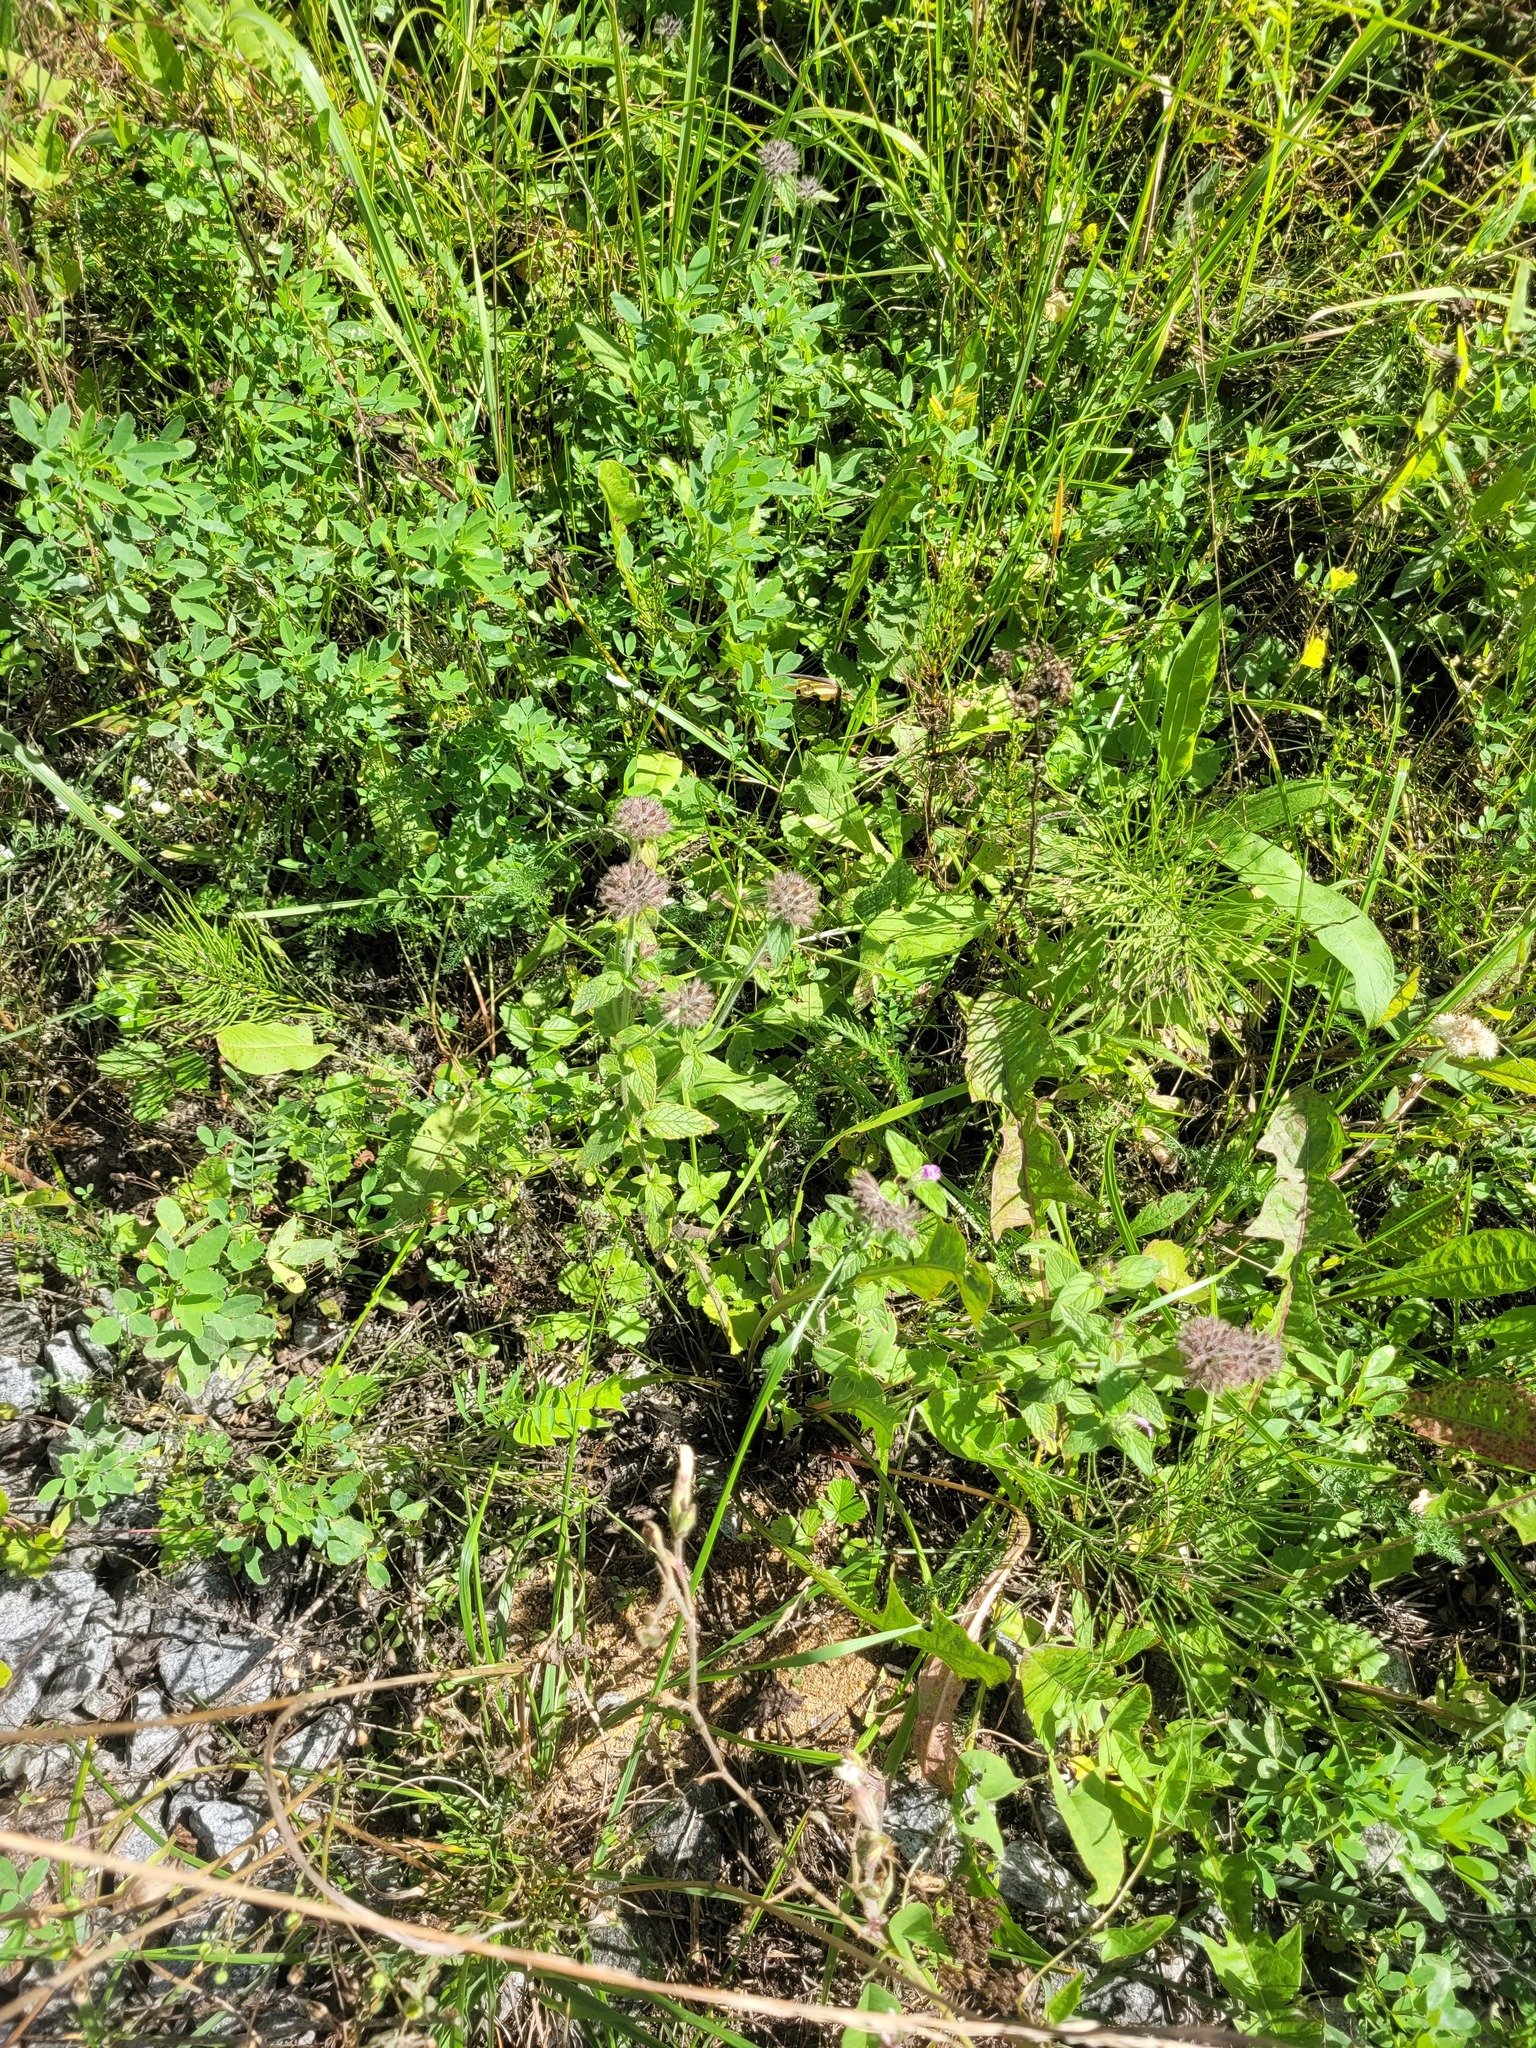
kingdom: Plantae
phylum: Tracheophyta
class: Magnoliopsida
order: Lamiales
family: Lamiaceae
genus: Clinopodium
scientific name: Clinopodium vulgare
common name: Wild basil
